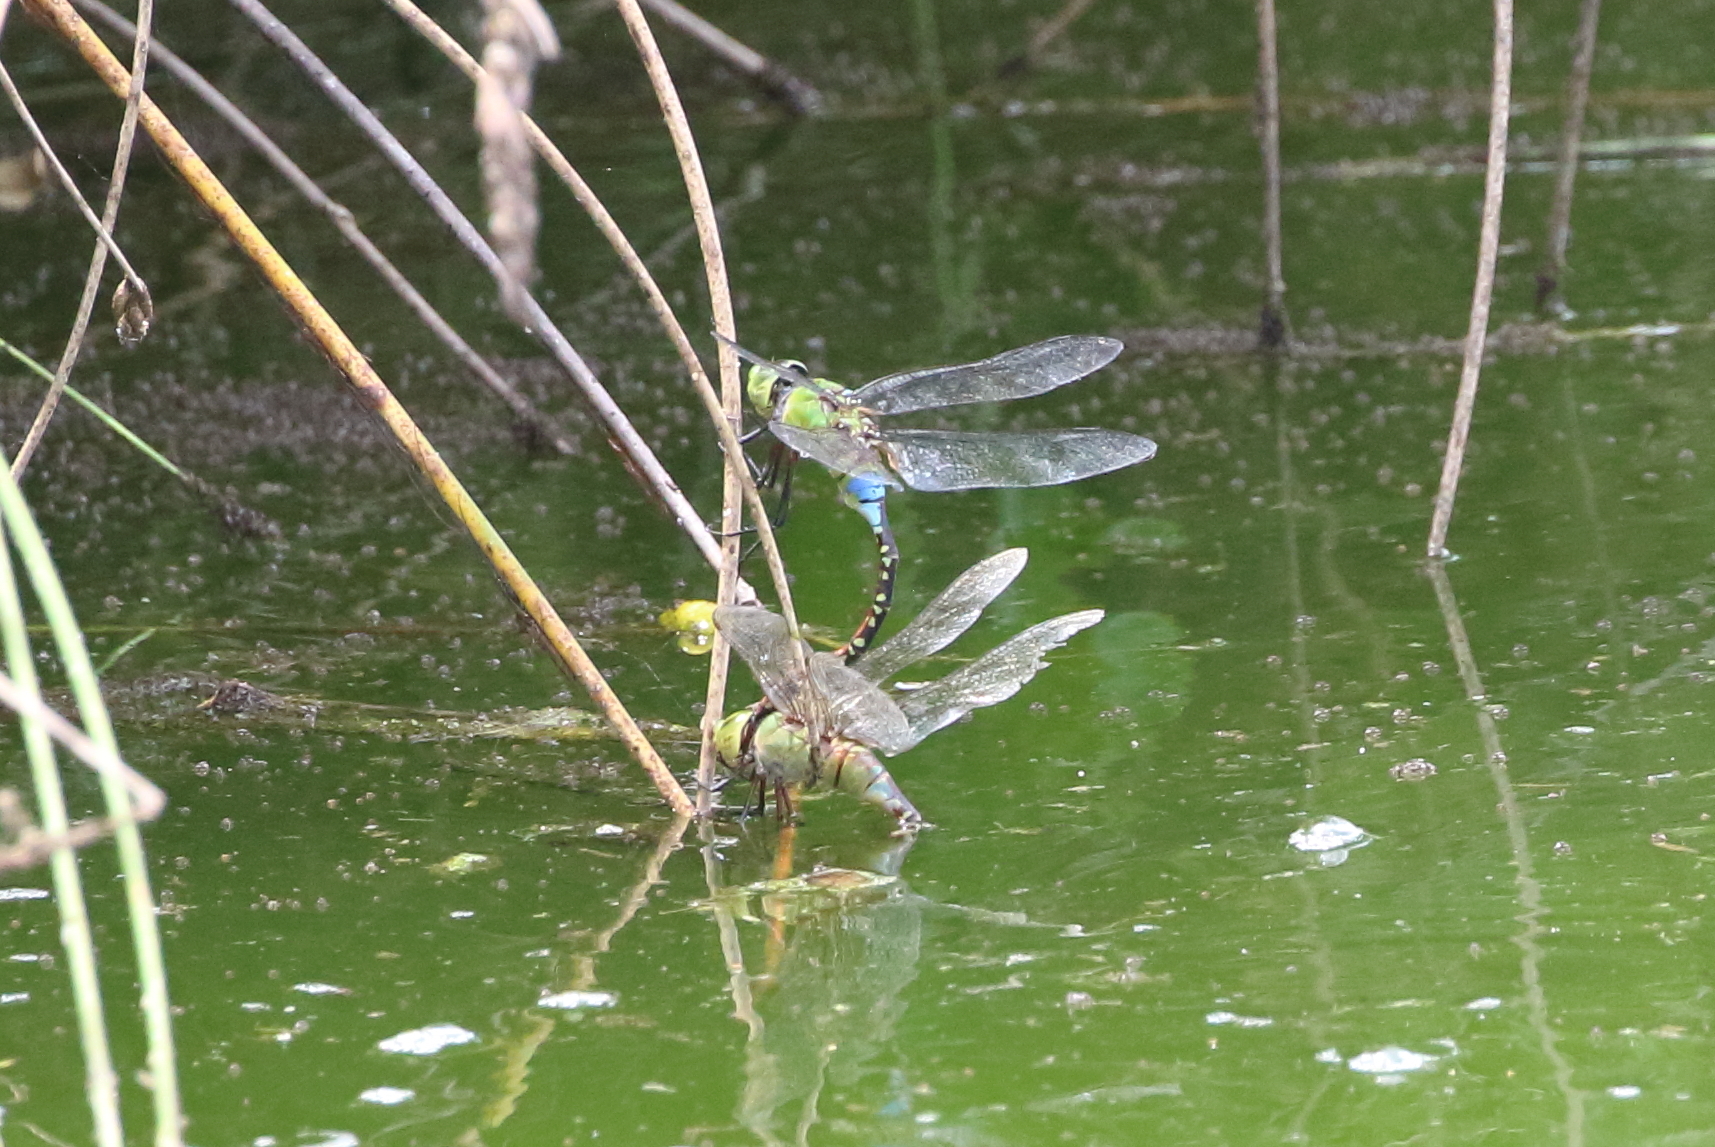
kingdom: Animalia
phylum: Arthropoda
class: Insecta
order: Odonata
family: Aeshnidae
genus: Anax
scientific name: Anax guttatus
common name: Emperor
